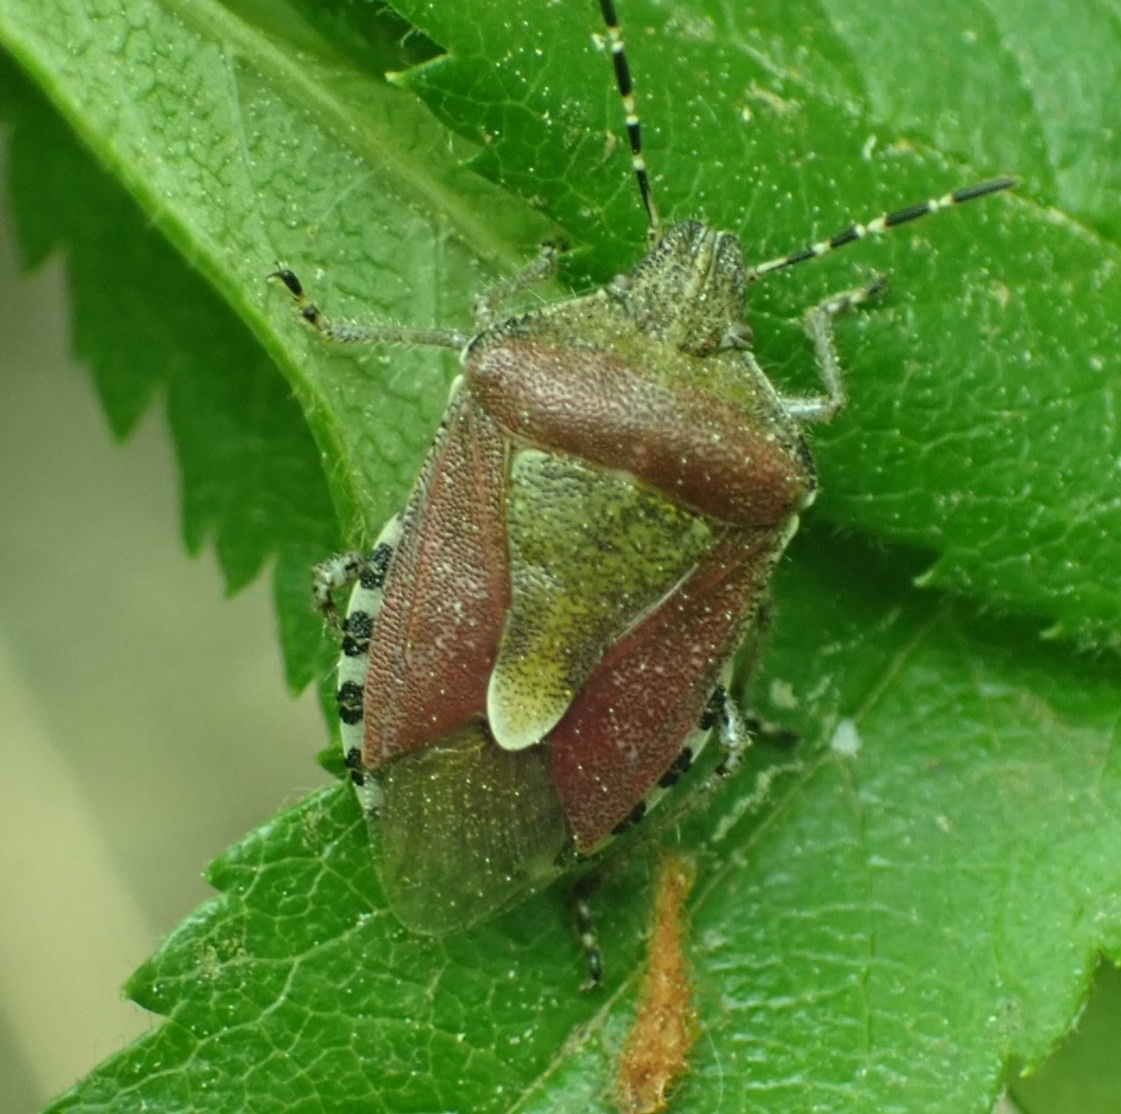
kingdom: Animalia
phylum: Arthropoda
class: Insecta
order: Hemiptera
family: Pentatomidae
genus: Dolycoris
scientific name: Dolycoris baccarum
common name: Sloe bug
